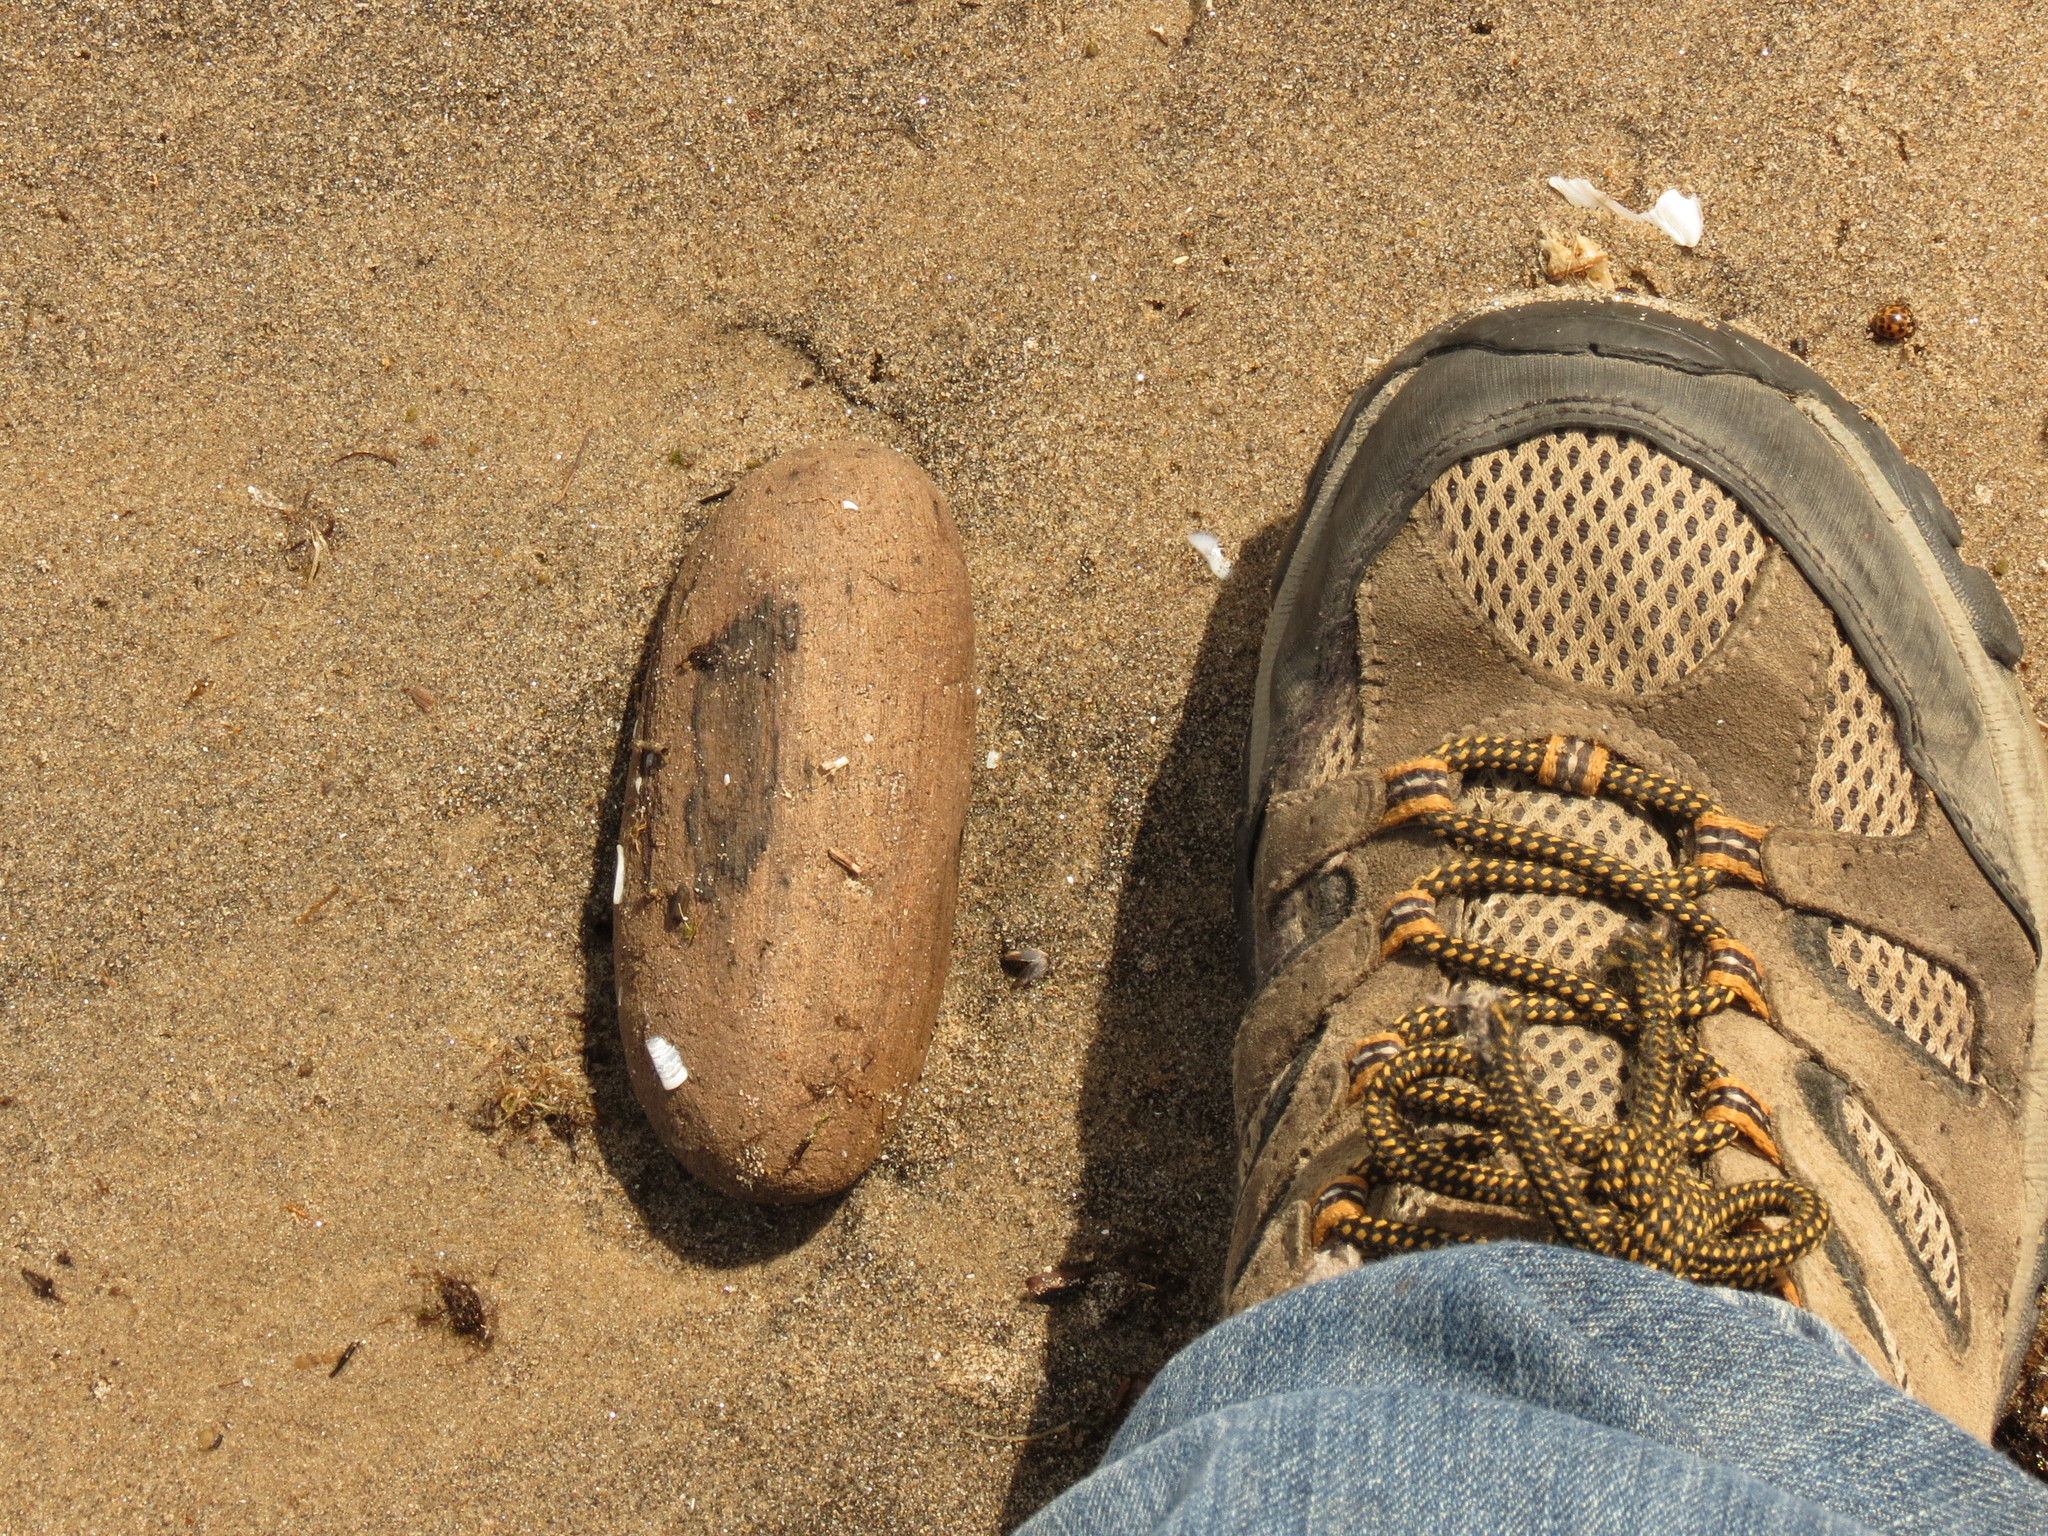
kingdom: Animalia
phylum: Arthropoda
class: Insecta
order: Coleoptera
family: Coccinellidae
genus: Harmonia
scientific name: Harmonia axyridis
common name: Harlequin ladybird
